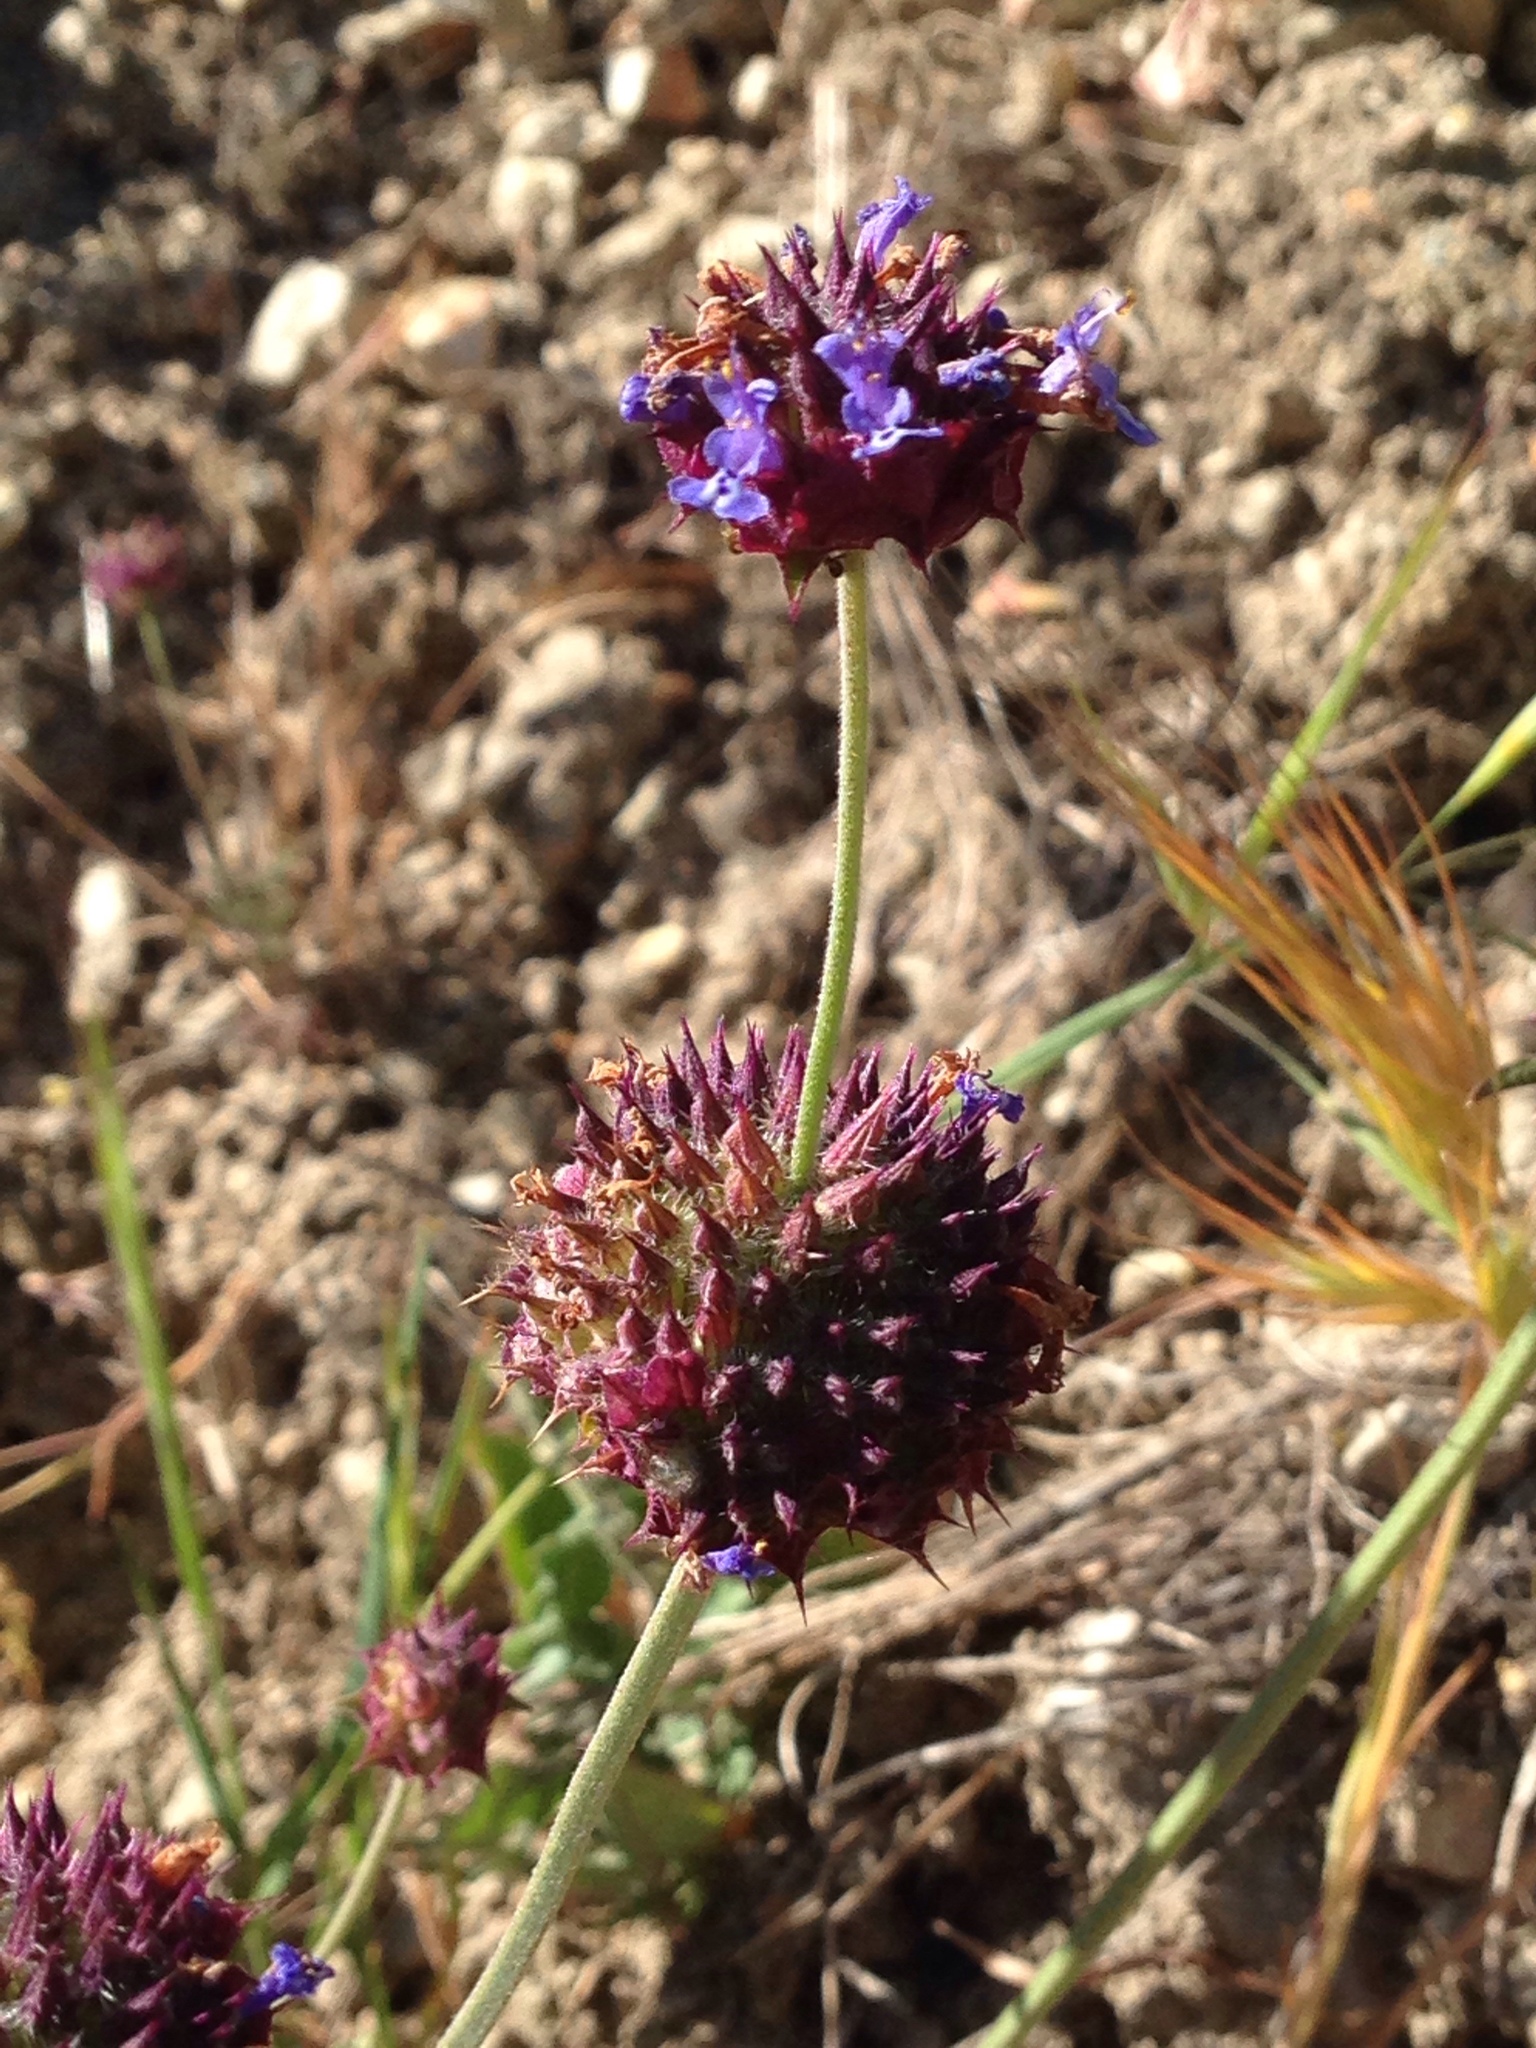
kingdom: Plantae
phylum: Tracheophyta
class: Magnoliopsida
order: Lamiales
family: Lamiaceae
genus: Salvia
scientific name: Salvia columbariae
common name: Chia
